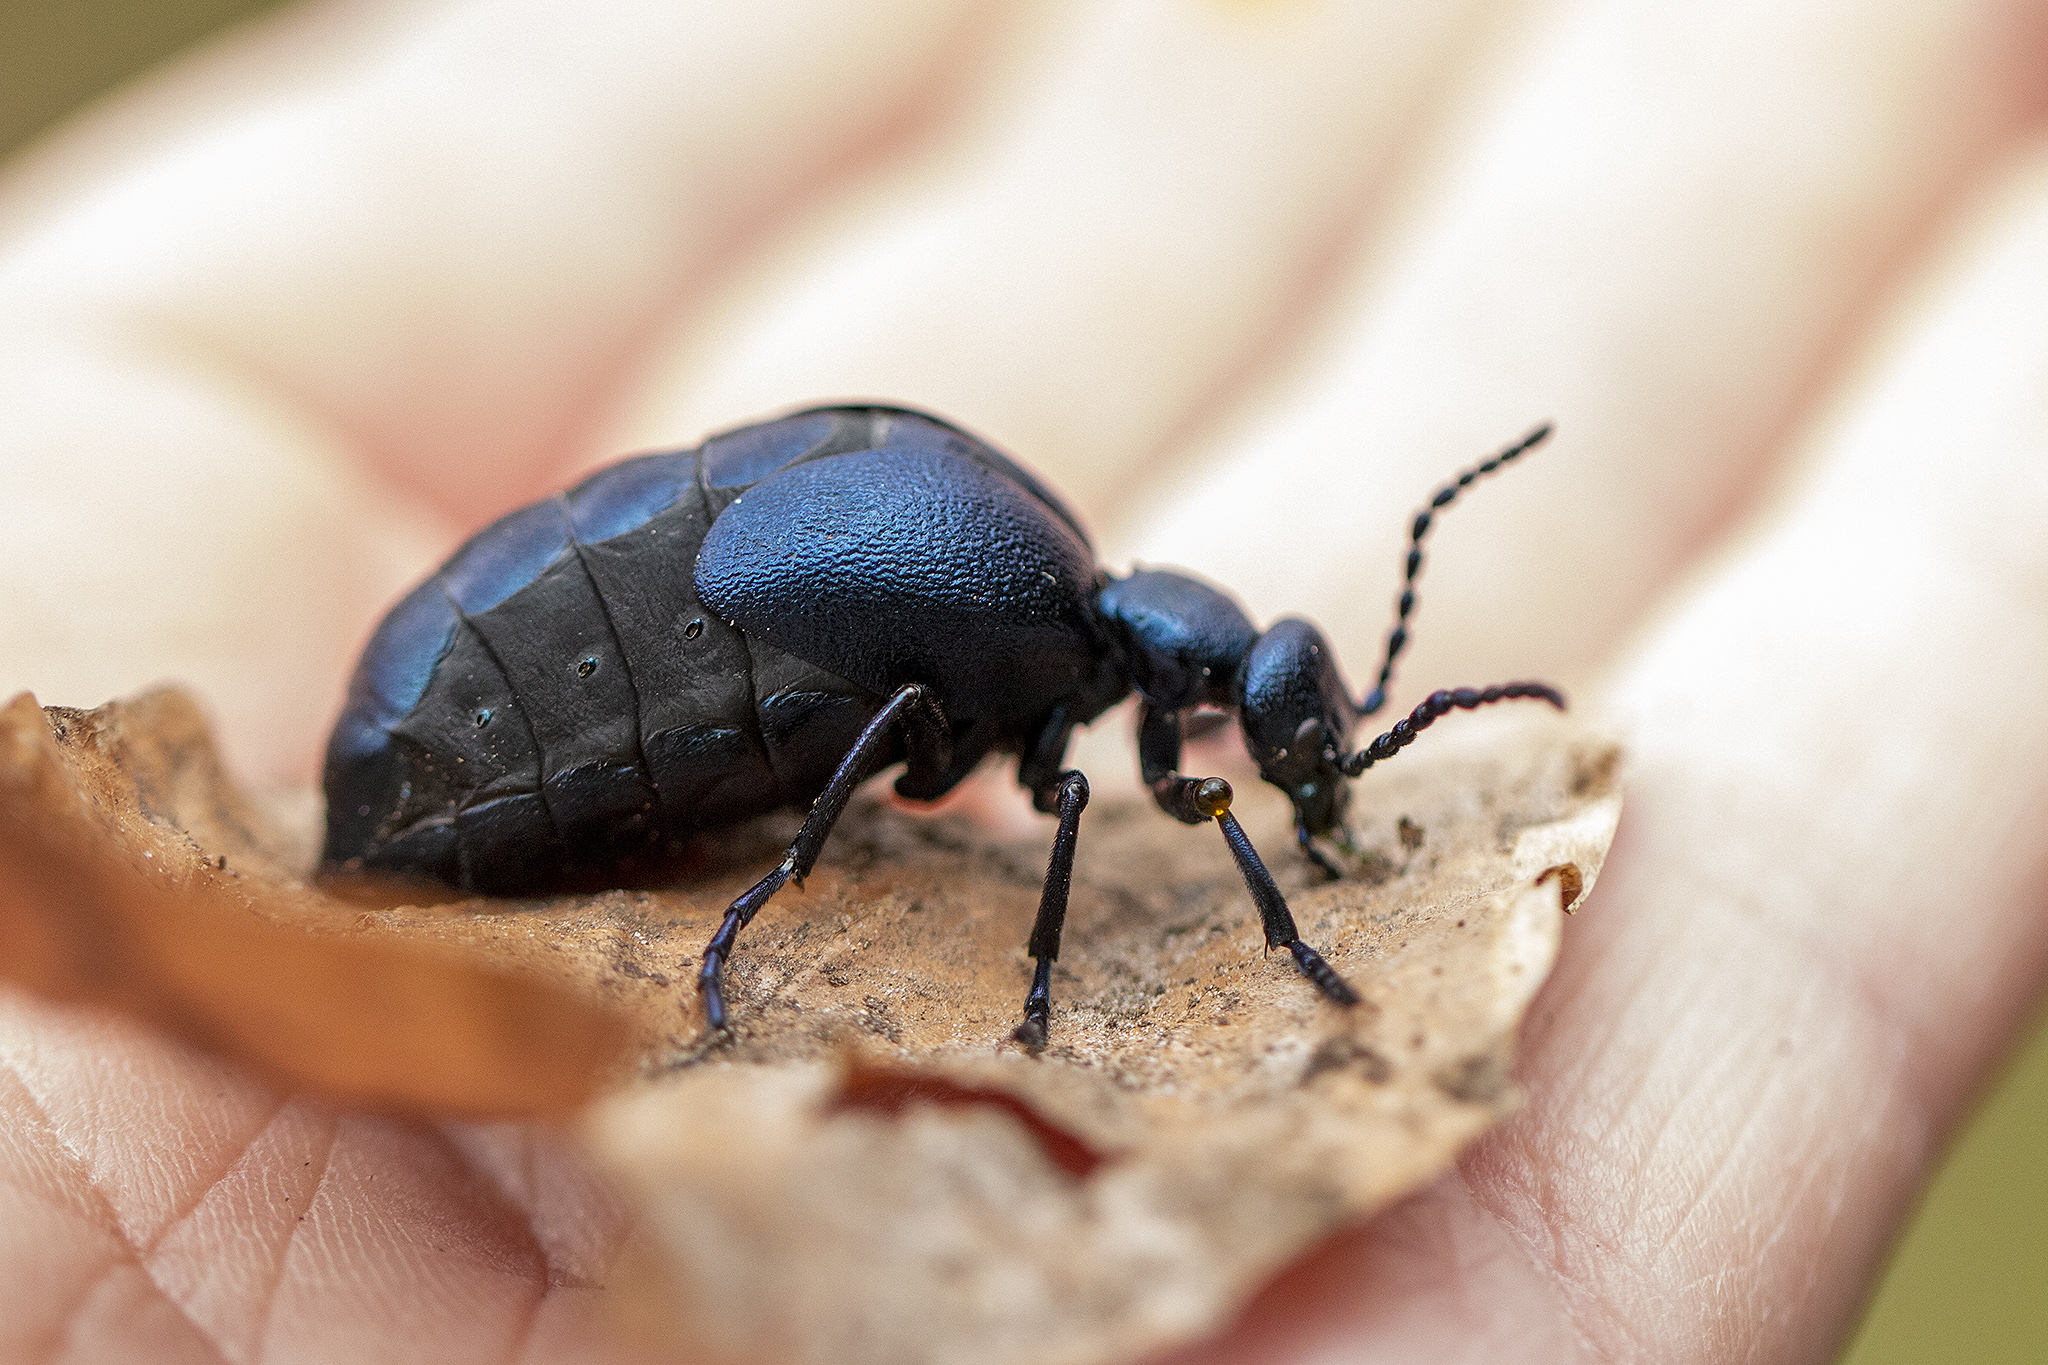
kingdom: Animalia
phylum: Arthropoda
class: Insecta
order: Coleoptera
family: Meloidae
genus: Meloe
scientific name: Meloe violaceus
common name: Violet oil-beetle
